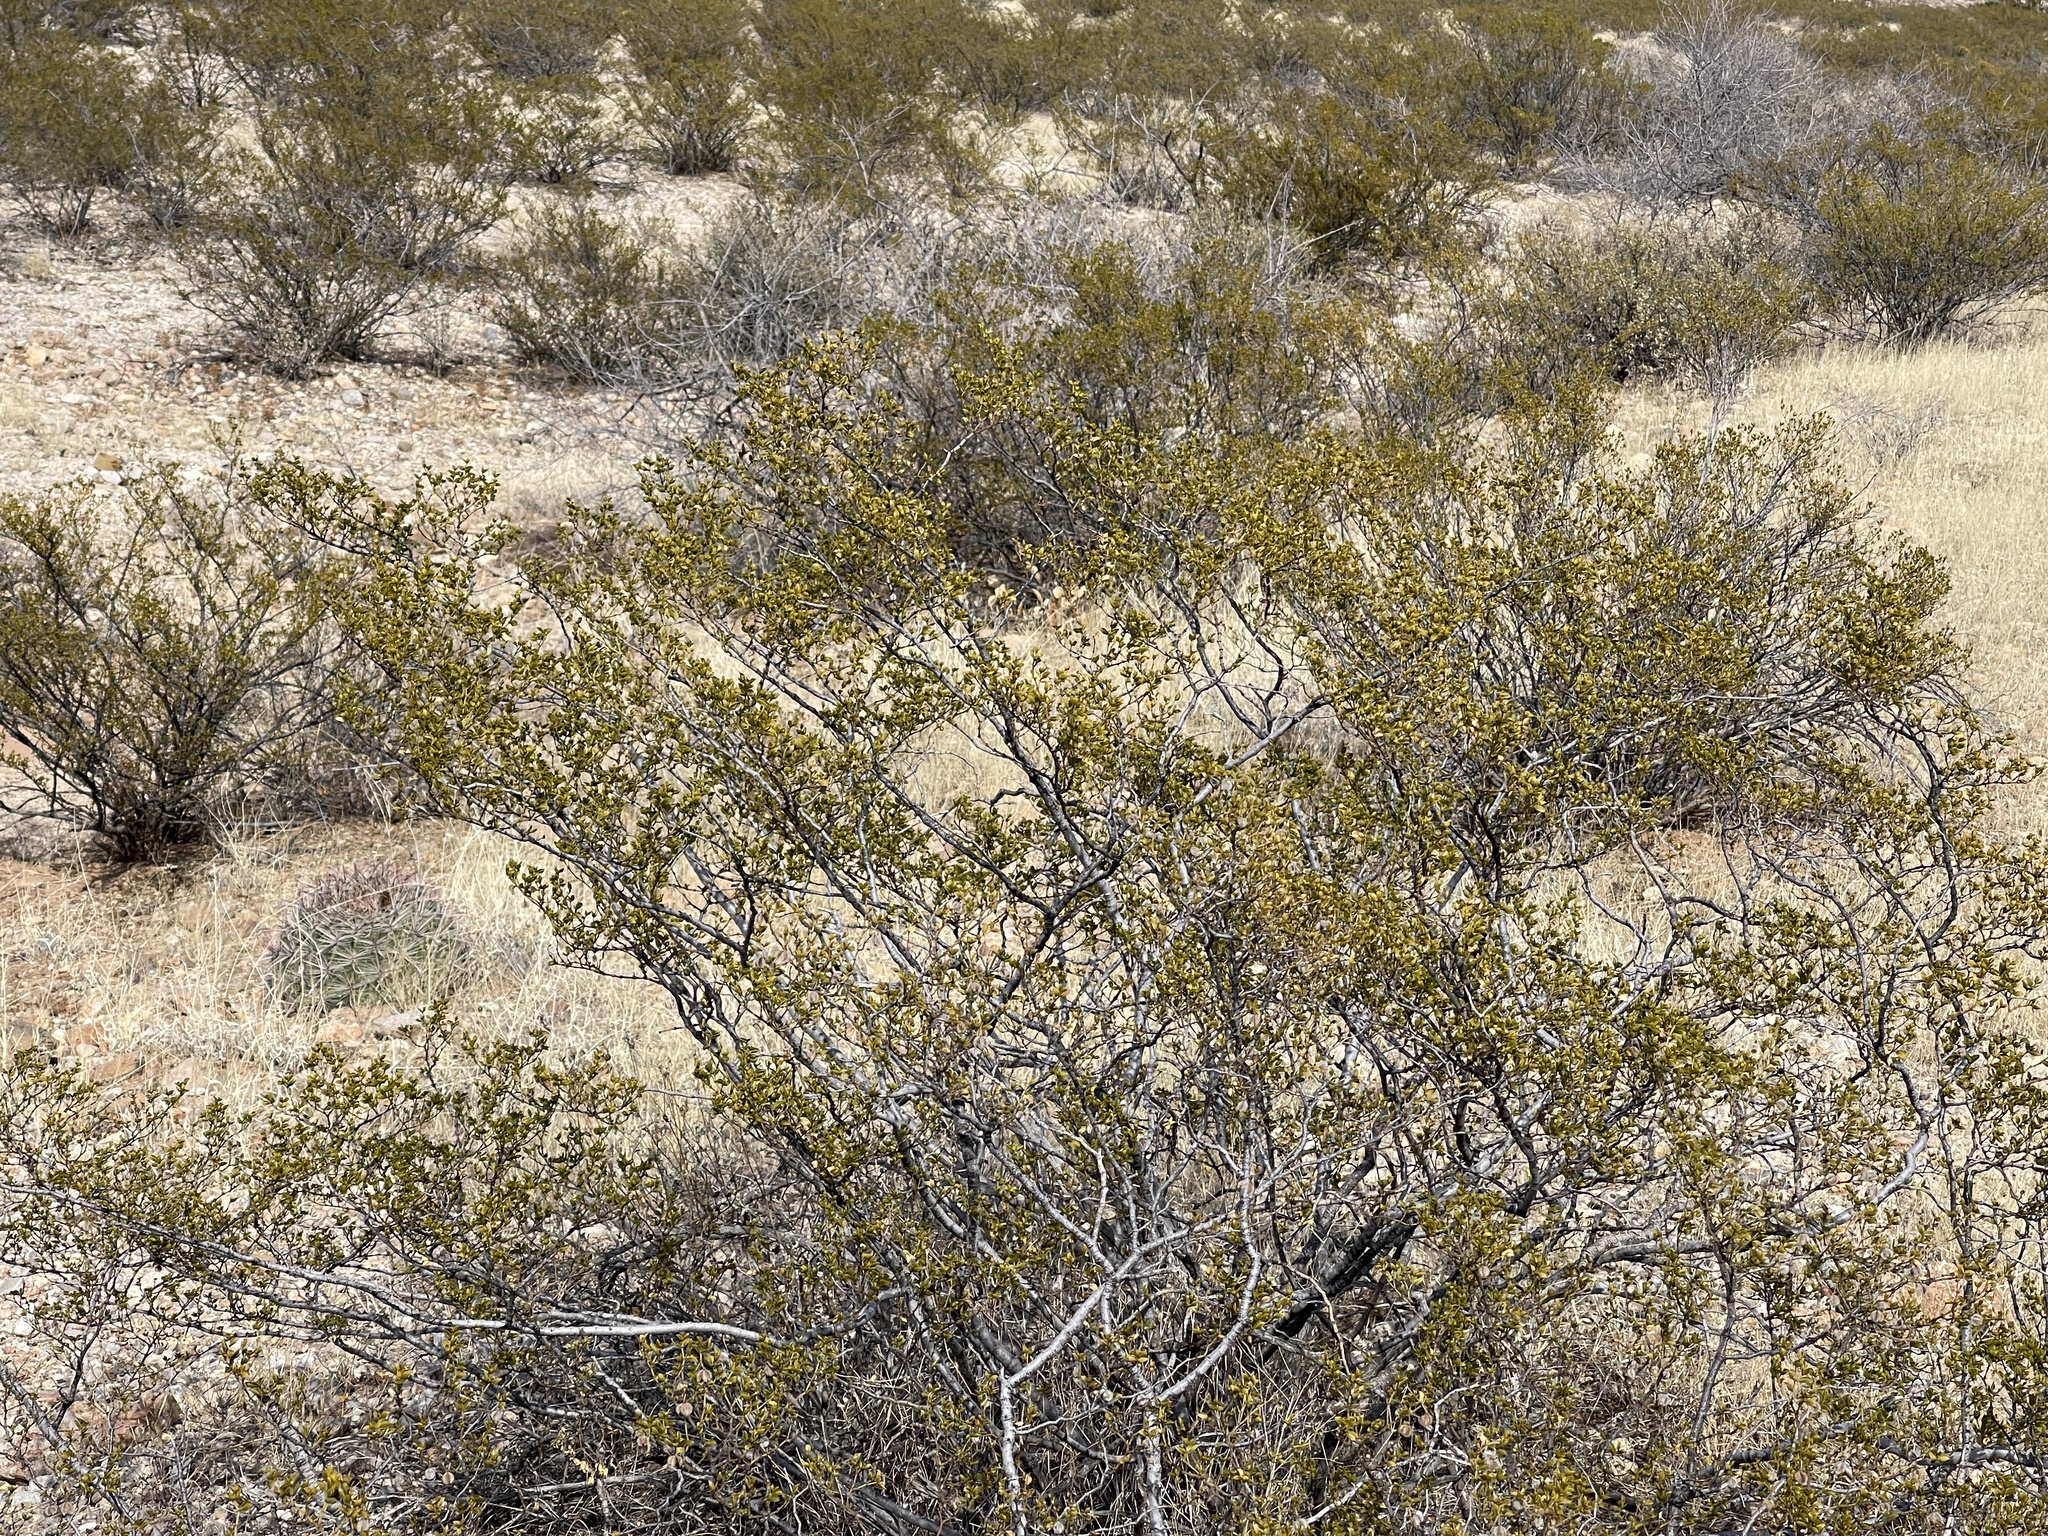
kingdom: Plantae
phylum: Tracheophyta
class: Magnoliopsida
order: Zygophyllales
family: Zygophyllaceae
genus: Larrea
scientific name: Larrea tridentata
